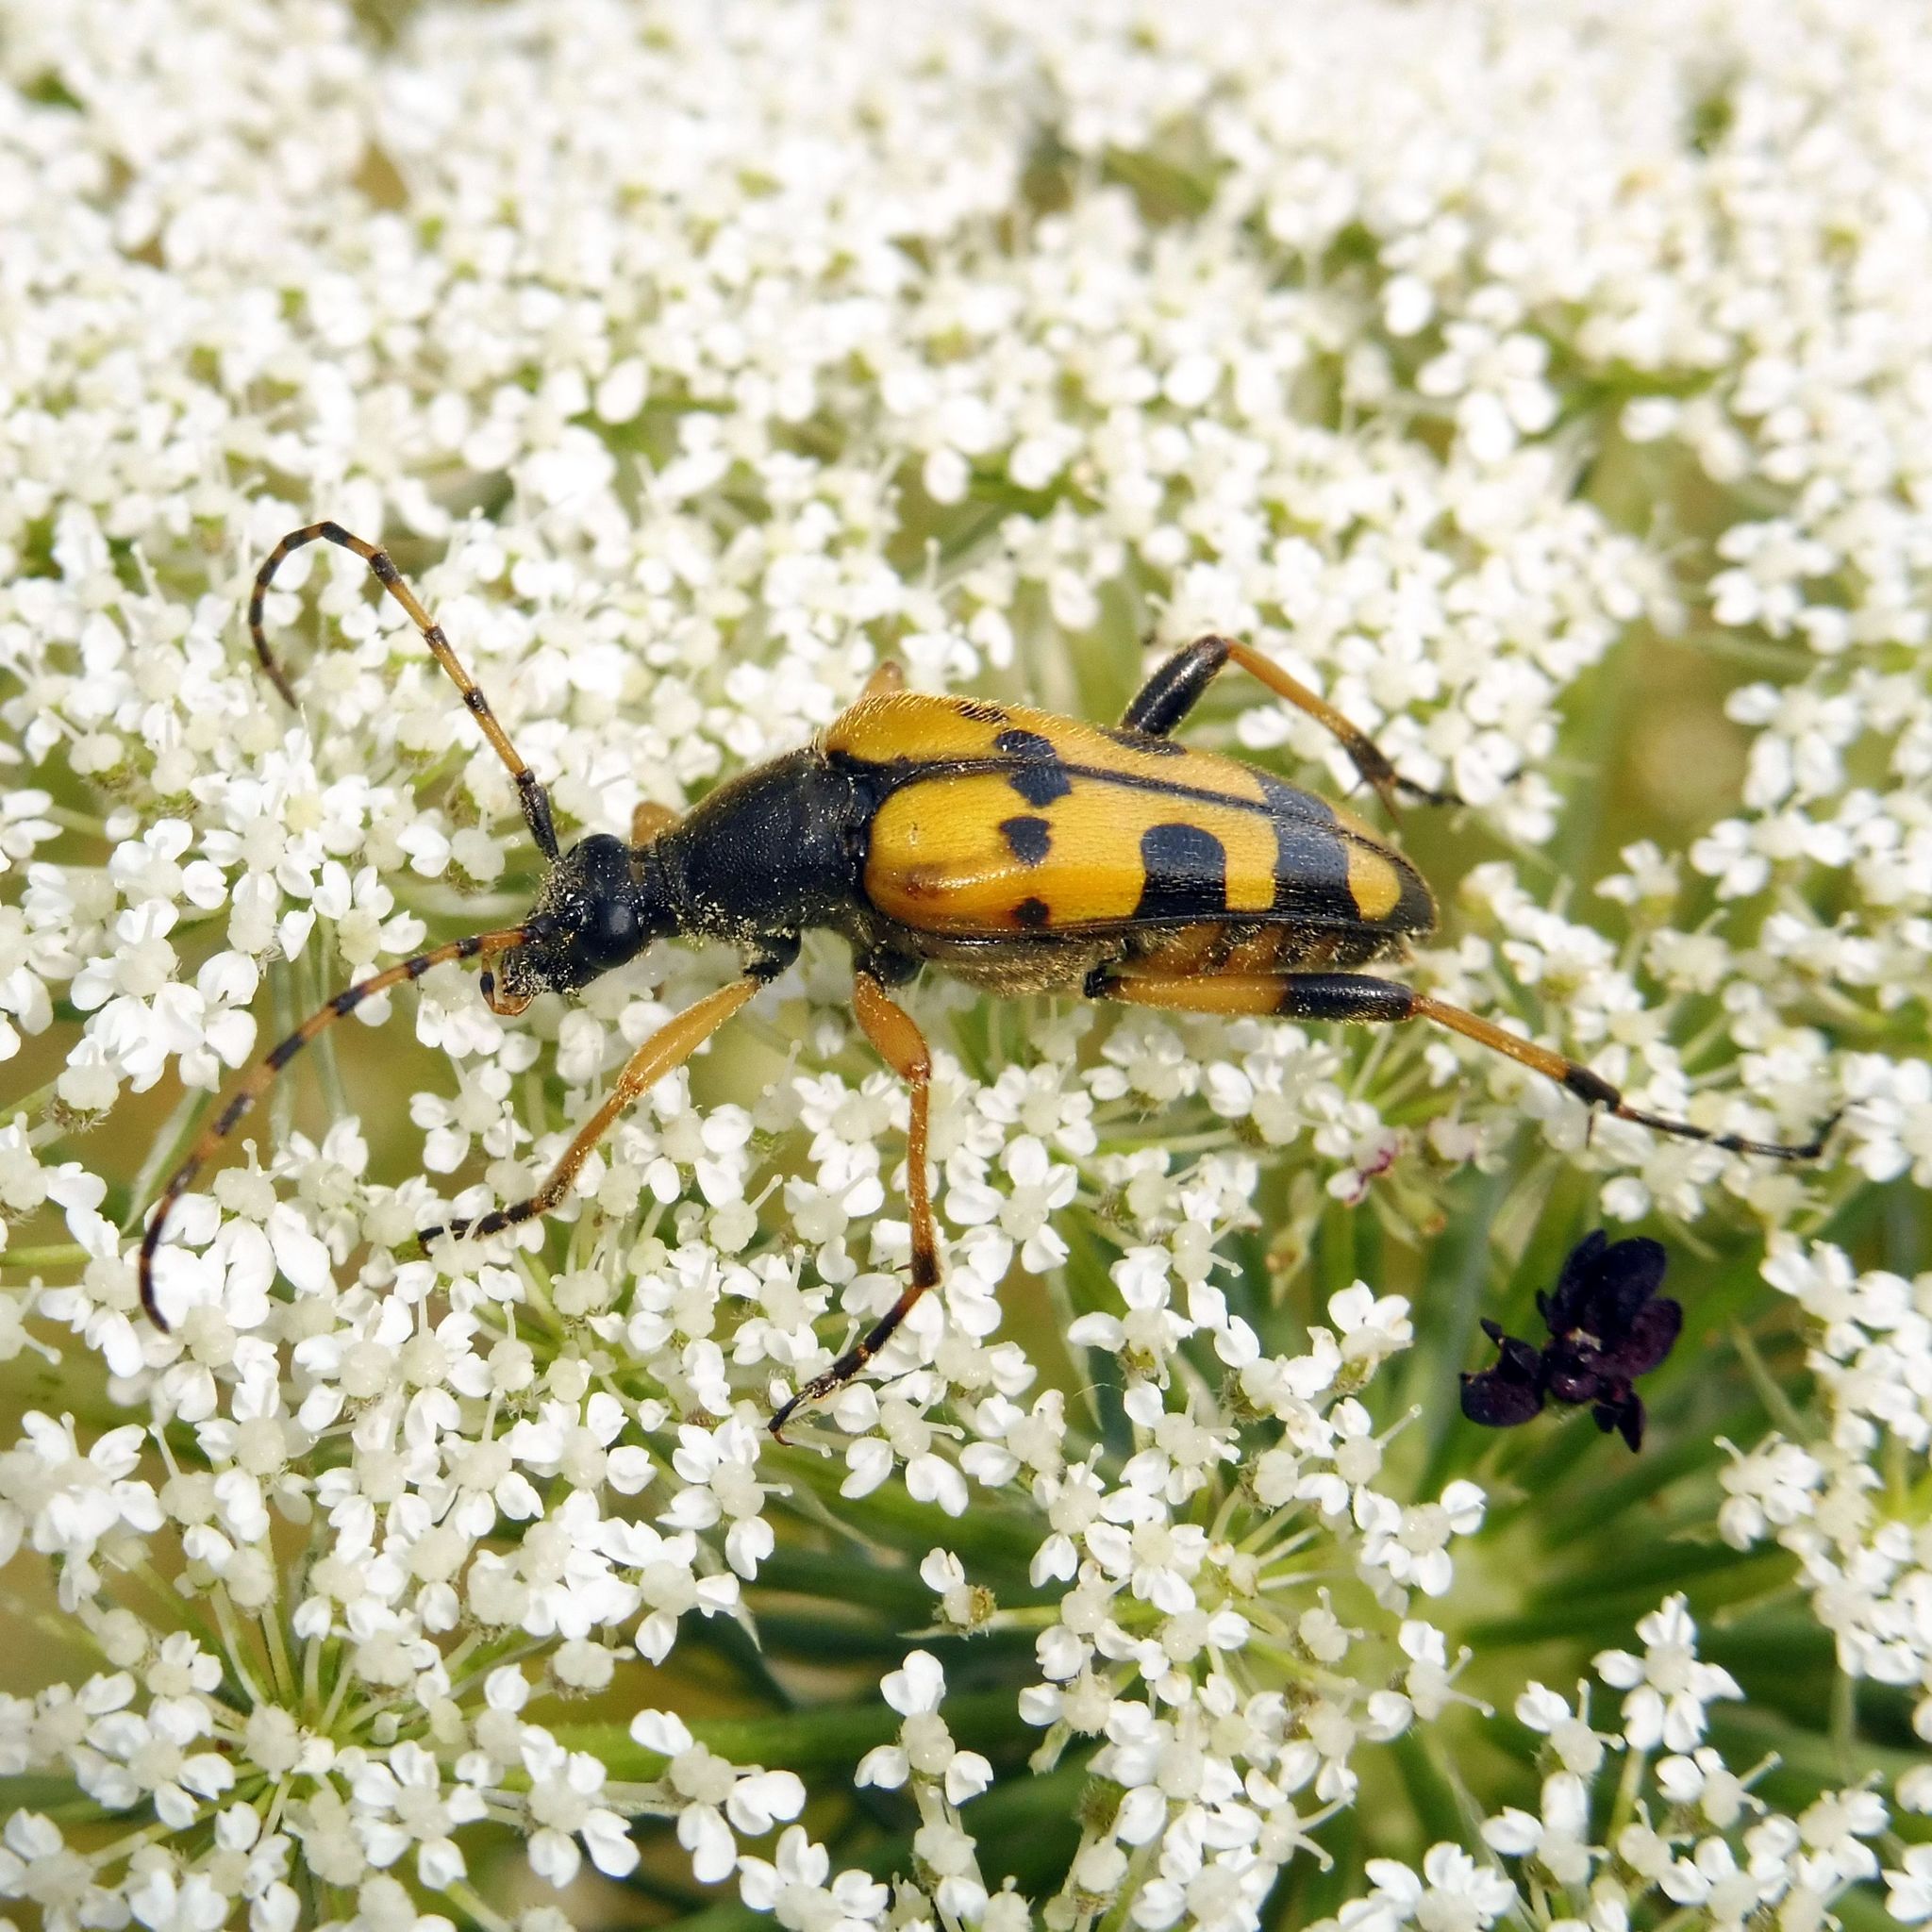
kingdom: Animalia
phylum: Arthropoda
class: Insecta
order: Coleoptera
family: Cerambycidae
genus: Rutpela
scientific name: Rutpela maculata
